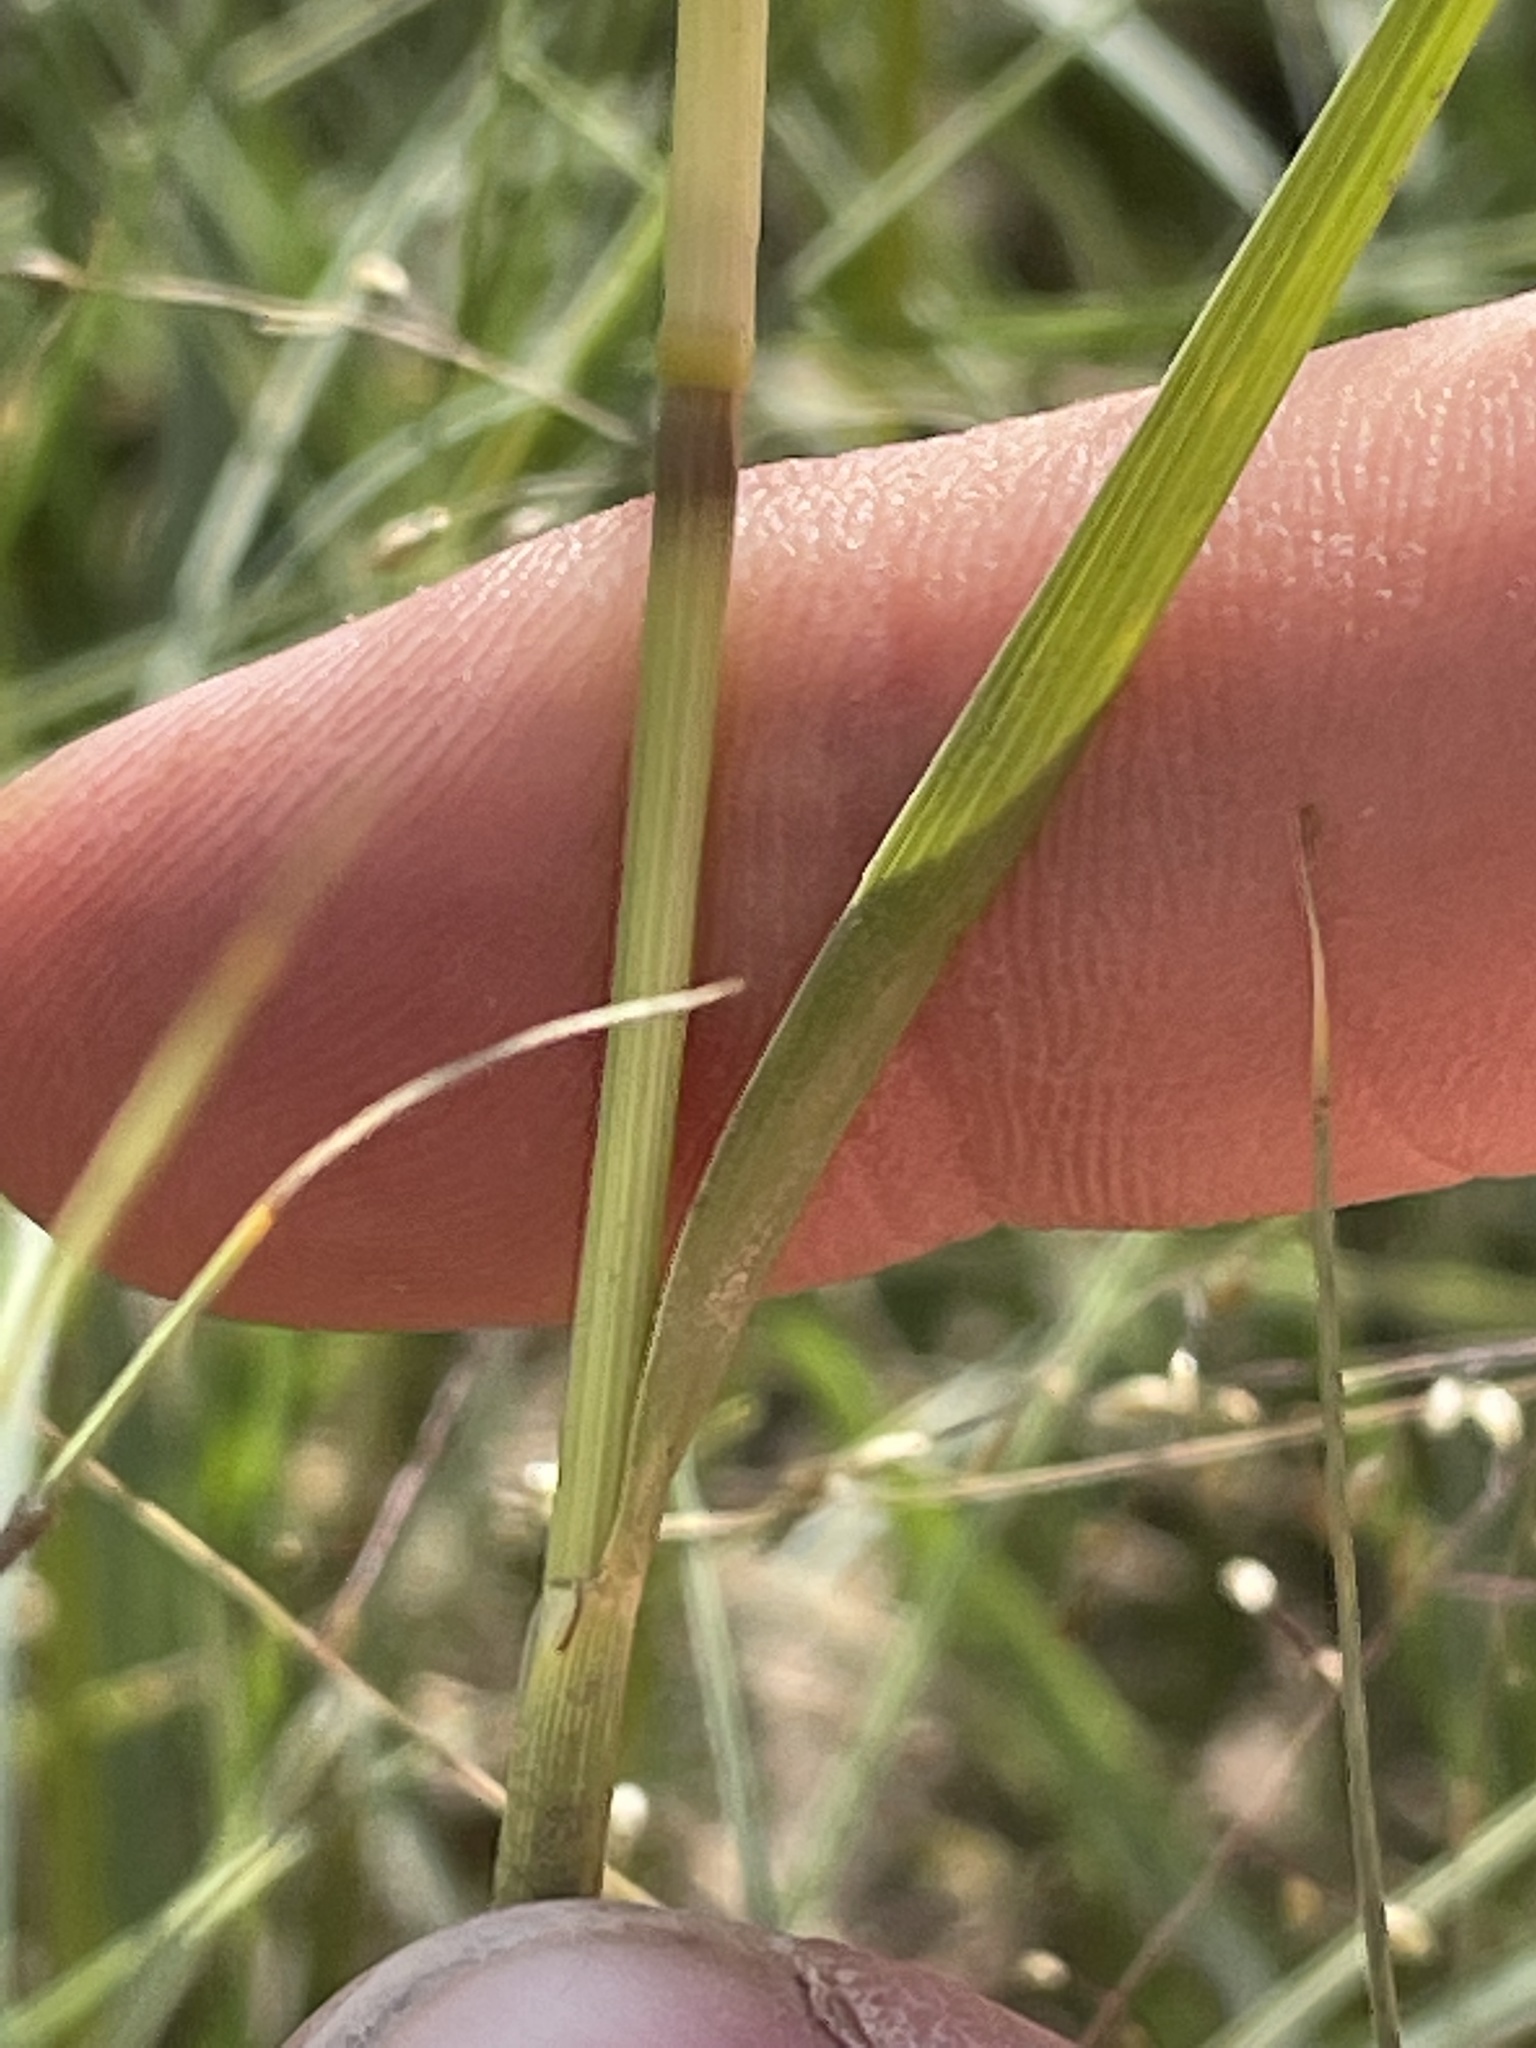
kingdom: Plantae
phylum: Tracheophyta
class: Liliopsida
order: Poales
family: Poaceae
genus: Sporobolus
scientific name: Sporobolus airoides
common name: Alkali sacaton
